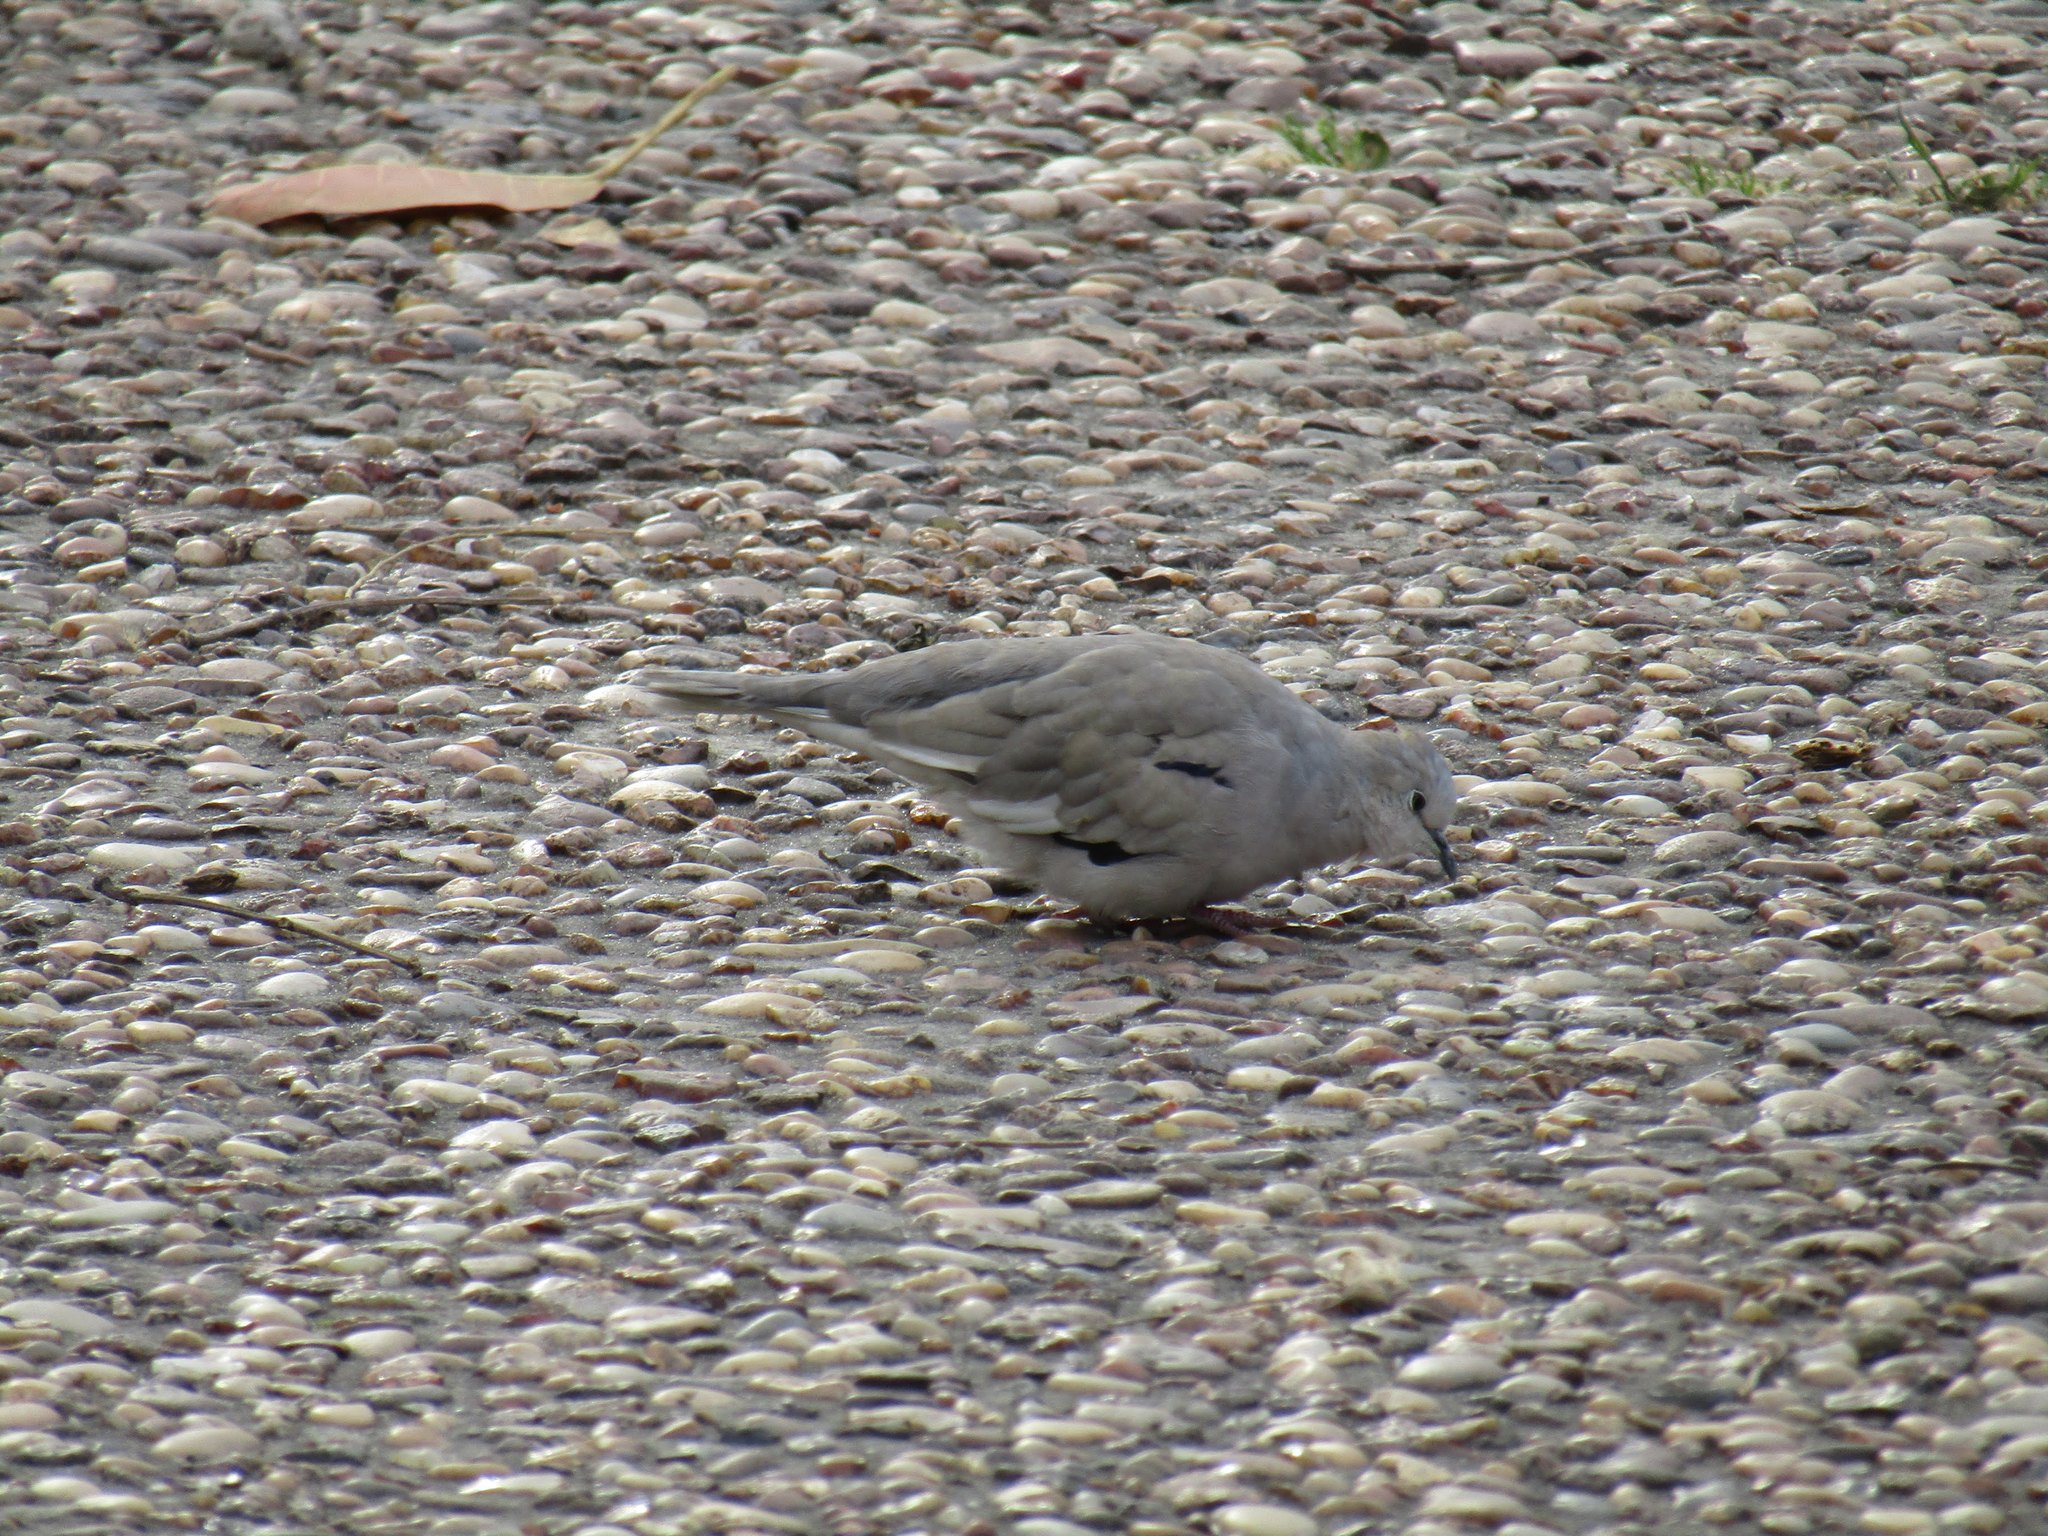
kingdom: Animalia
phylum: Chordata
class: Aves
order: Columbiformes
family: Columbidae
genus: Columbina
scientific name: Columbina picui
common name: Picui ground dove
